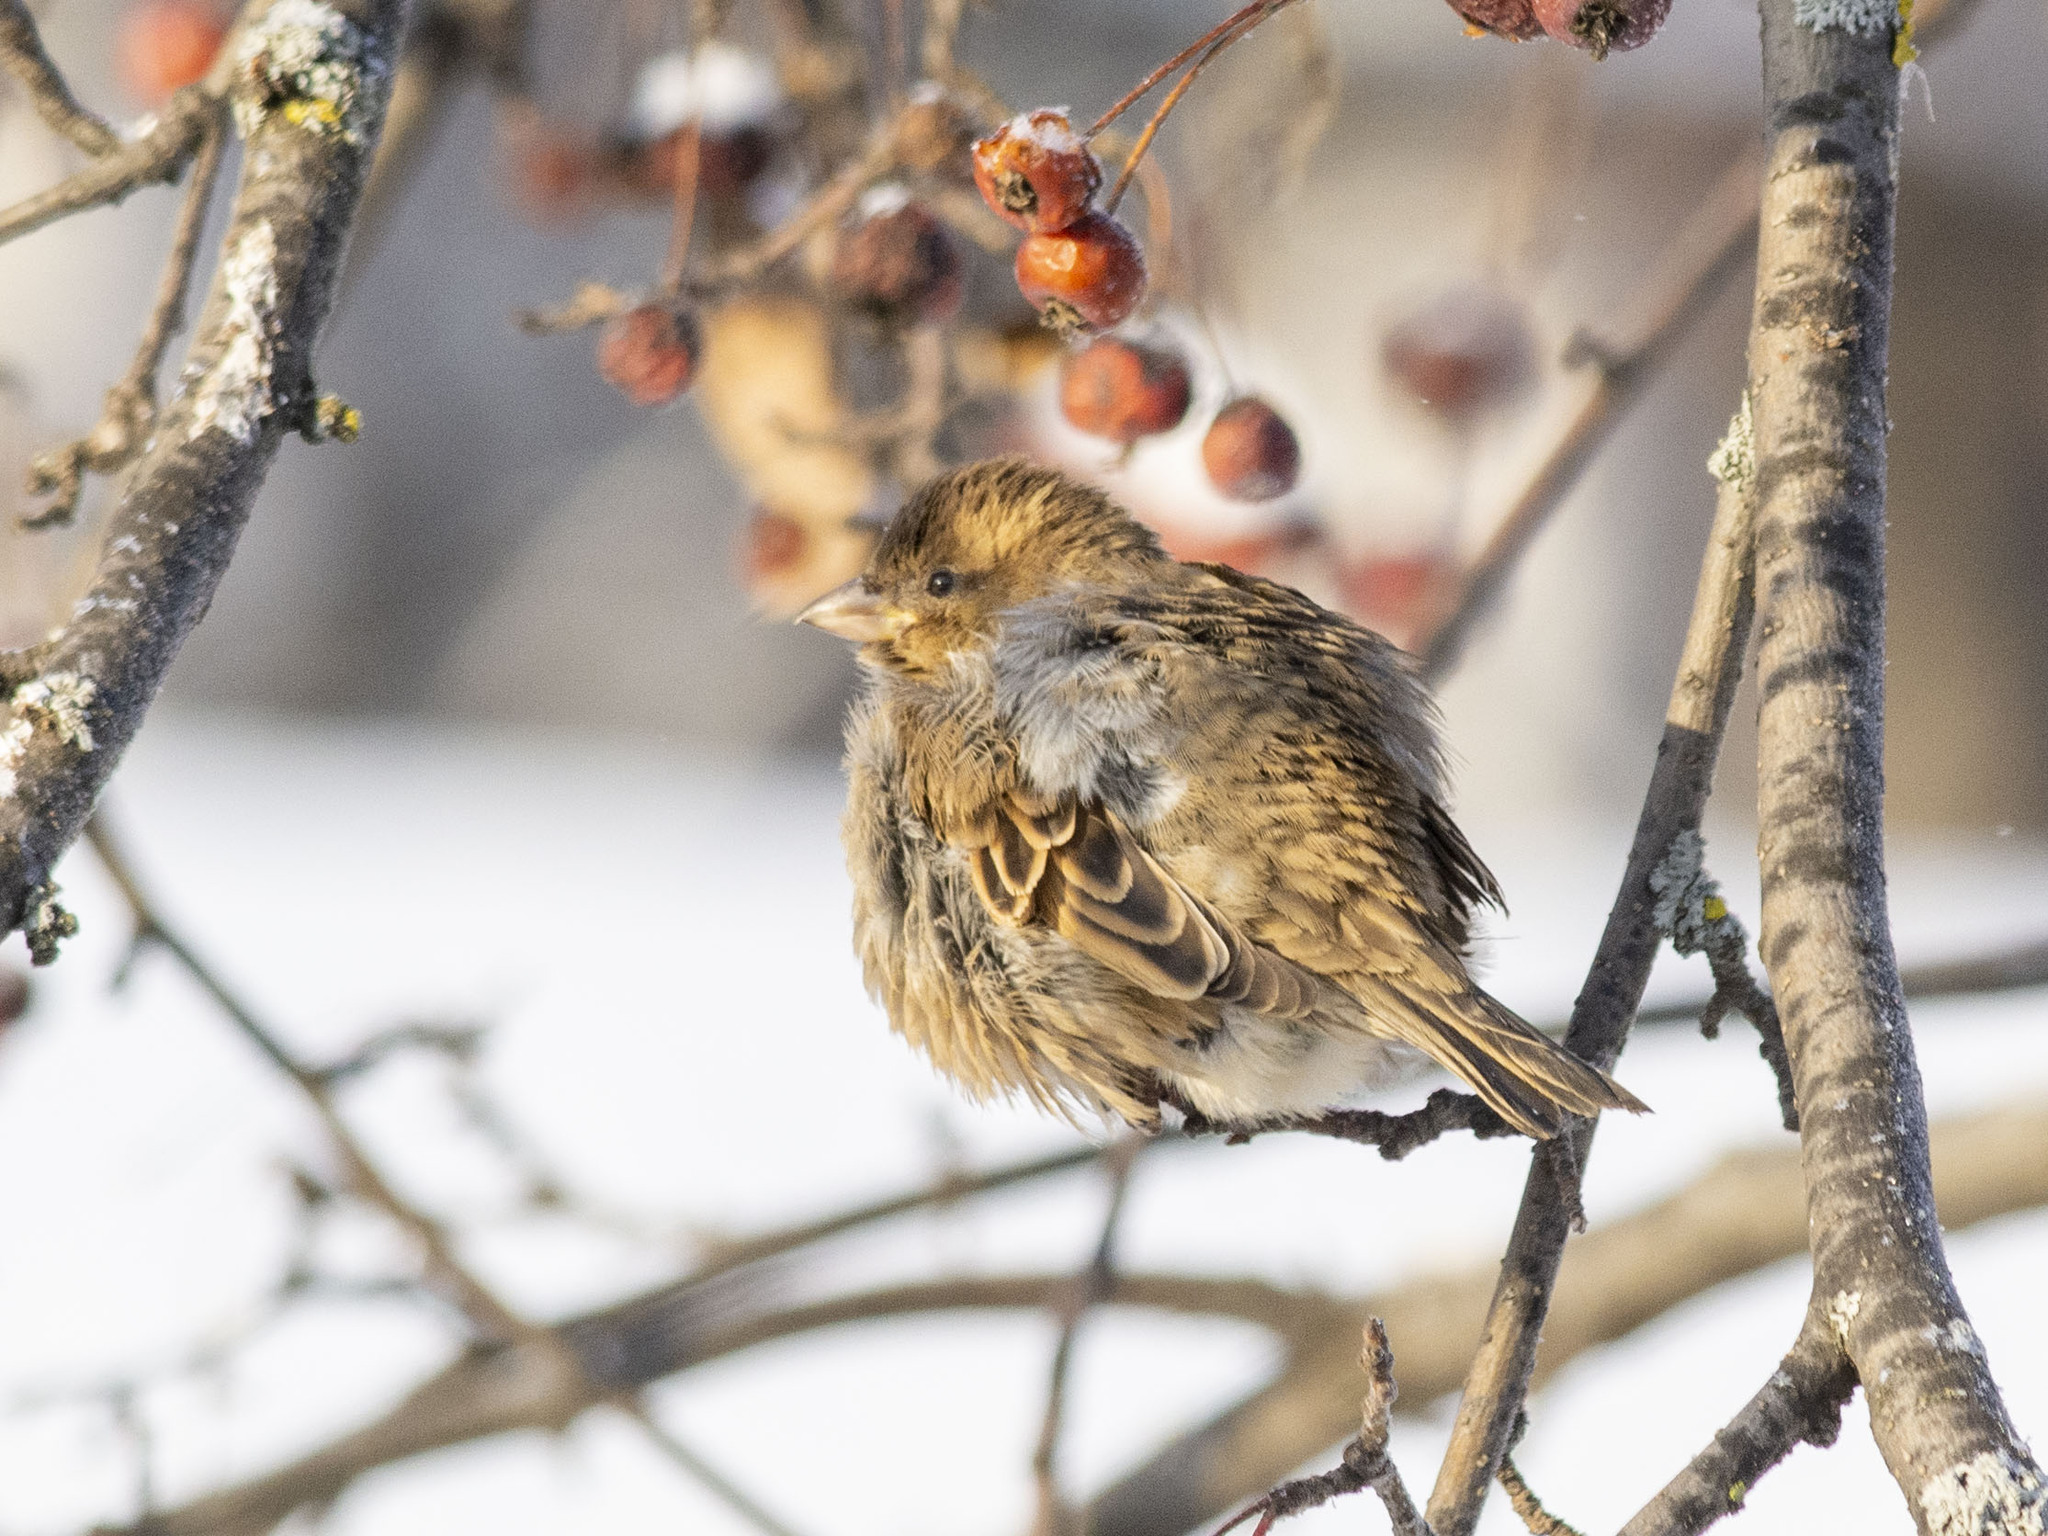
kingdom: Animalia
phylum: Chordata
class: Aves
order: Passeriformes
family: Passeridae
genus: Passer
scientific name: Passer domesticus
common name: House sparrow
